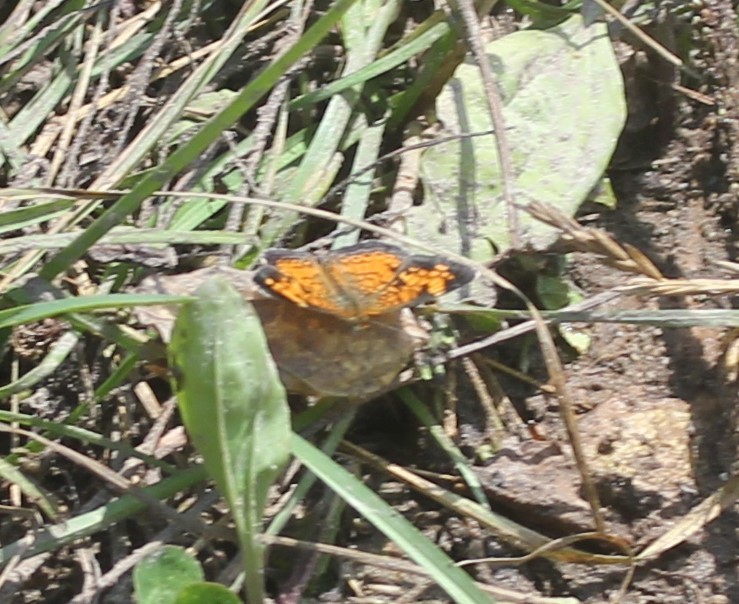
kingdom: Animalia
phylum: Arthropoda
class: Insecta
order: Lepidoptera
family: Nymphalidae
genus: Phyciodes
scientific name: Phyciodes tharos
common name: Pearl crescent
